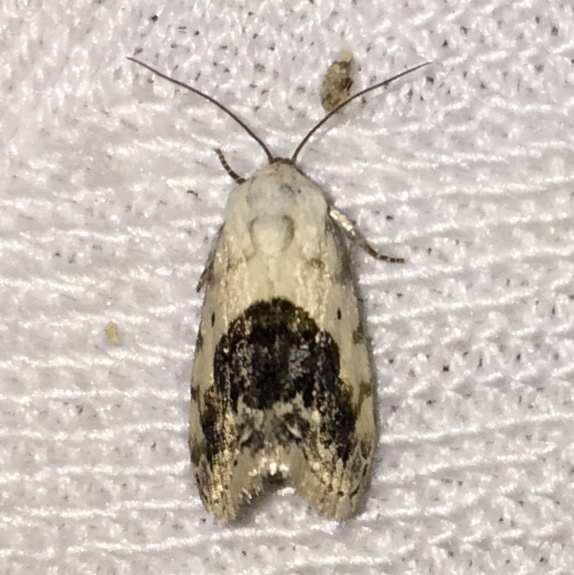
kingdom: Animalia
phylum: Arthropoda
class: Insecta
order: Lepidoptera
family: Noctuidae
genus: Acontia
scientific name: Acontia erastrioides
